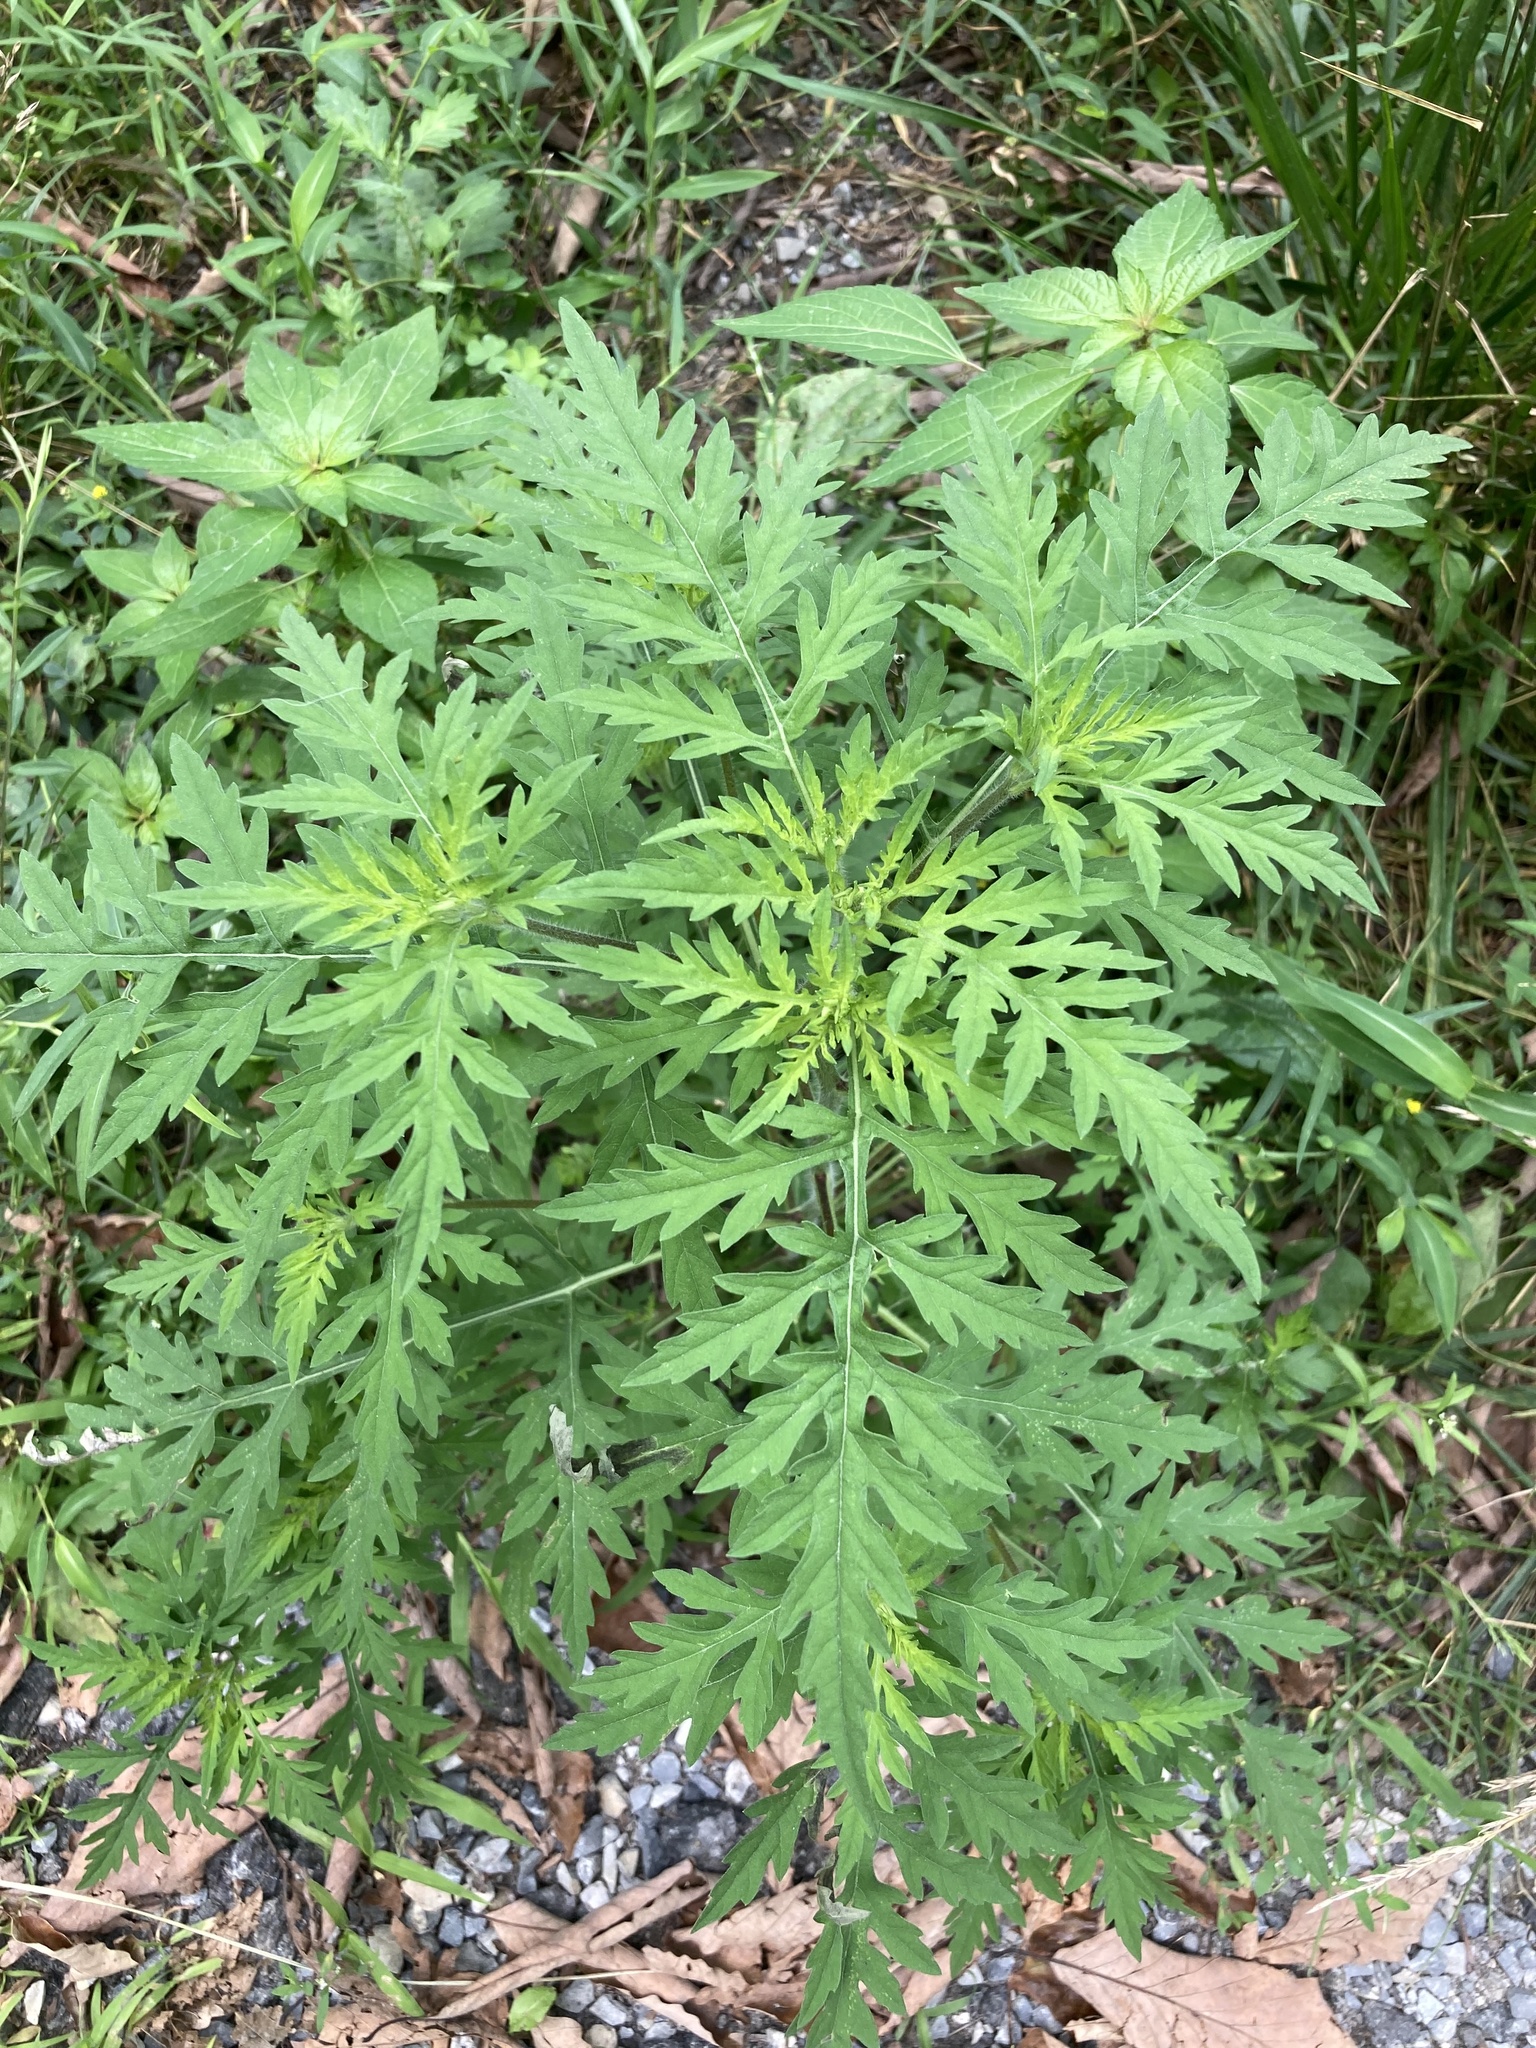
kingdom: Plantae
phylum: Tracheophyta
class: Magnoliopsida
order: Asterales
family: Asteraceae
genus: Ambrosia
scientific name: Ambrosia artemisiifolia
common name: Annual ragweed
